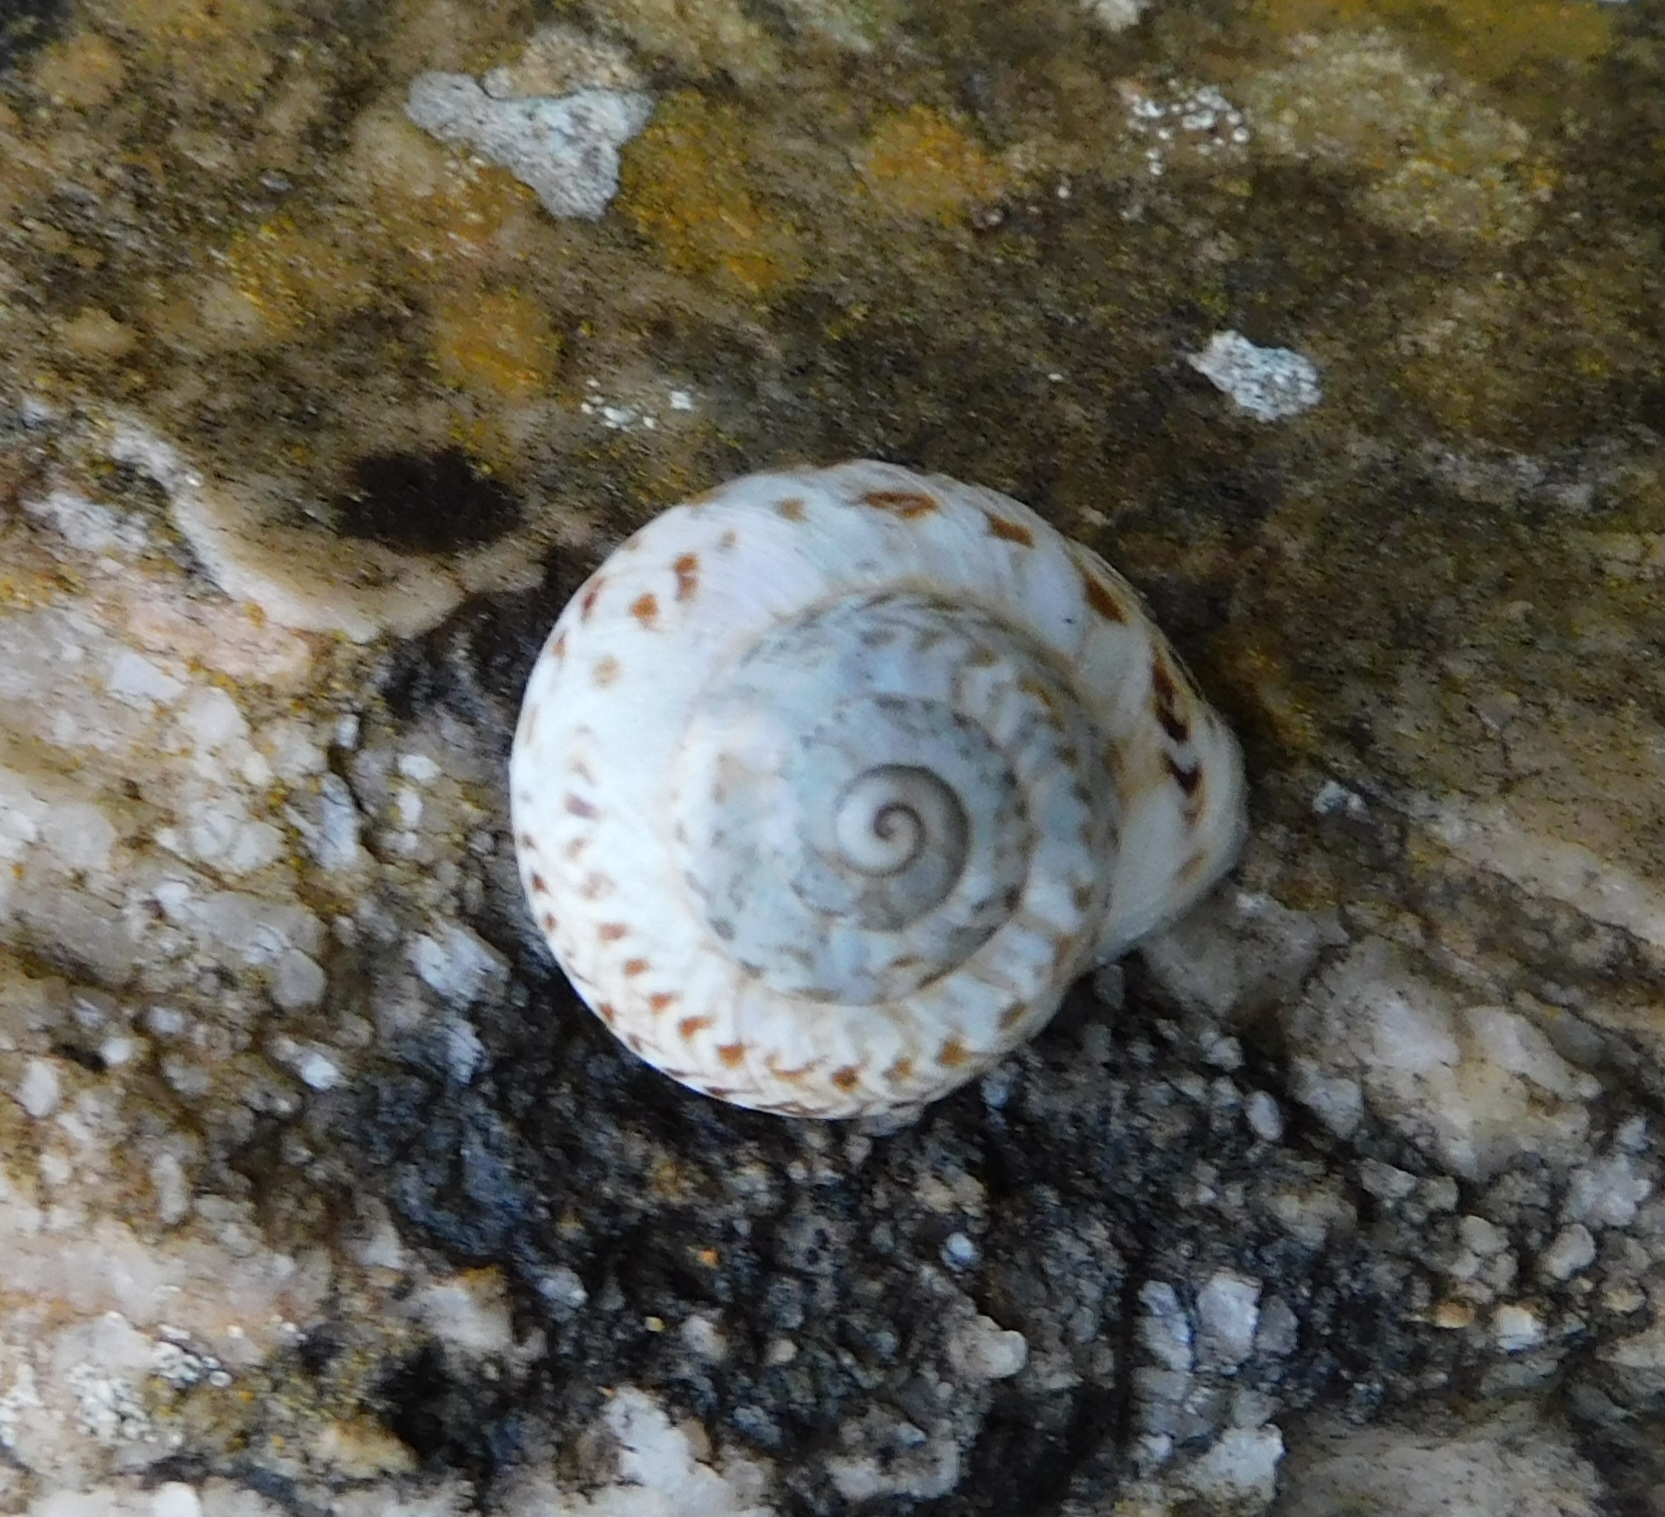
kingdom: Animalia
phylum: Mollusca
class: Gastropoda
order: Stylommatophora
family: Helicidae
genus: Marmorana
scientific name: Marmorana serpentina
